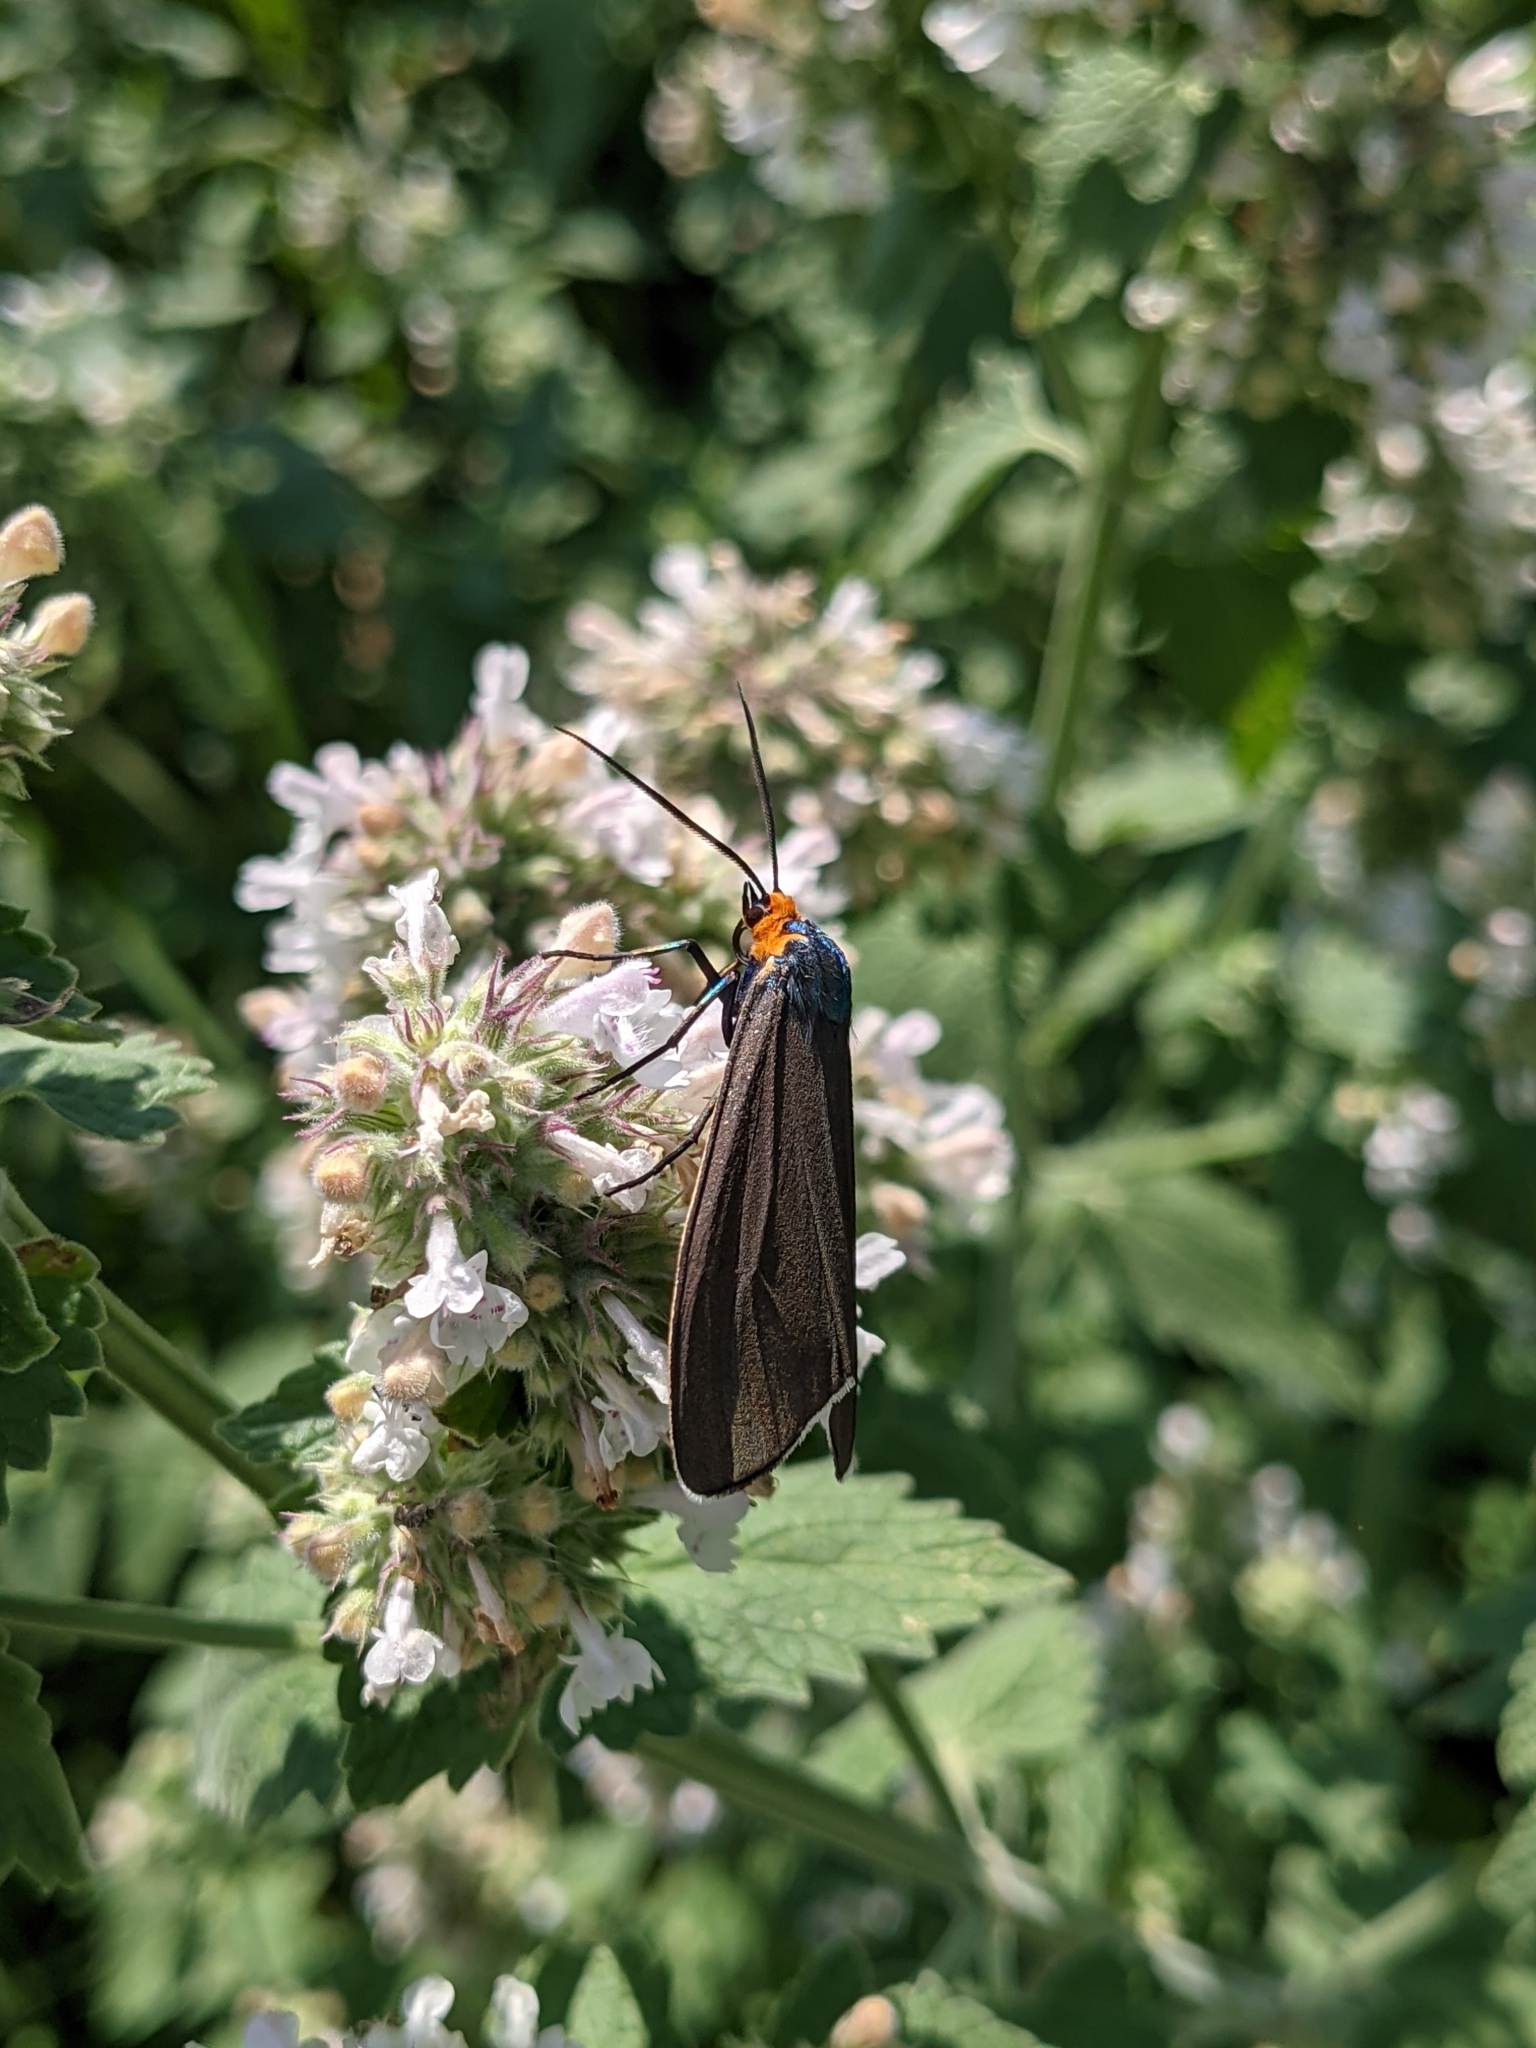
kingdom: Animalia
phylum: Arthropoda
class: Insecta
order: Lepidoptera
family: Erebidae
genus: Cisseps
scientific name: Cisseps fulvicollis
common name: Yellow-collared scape moth
